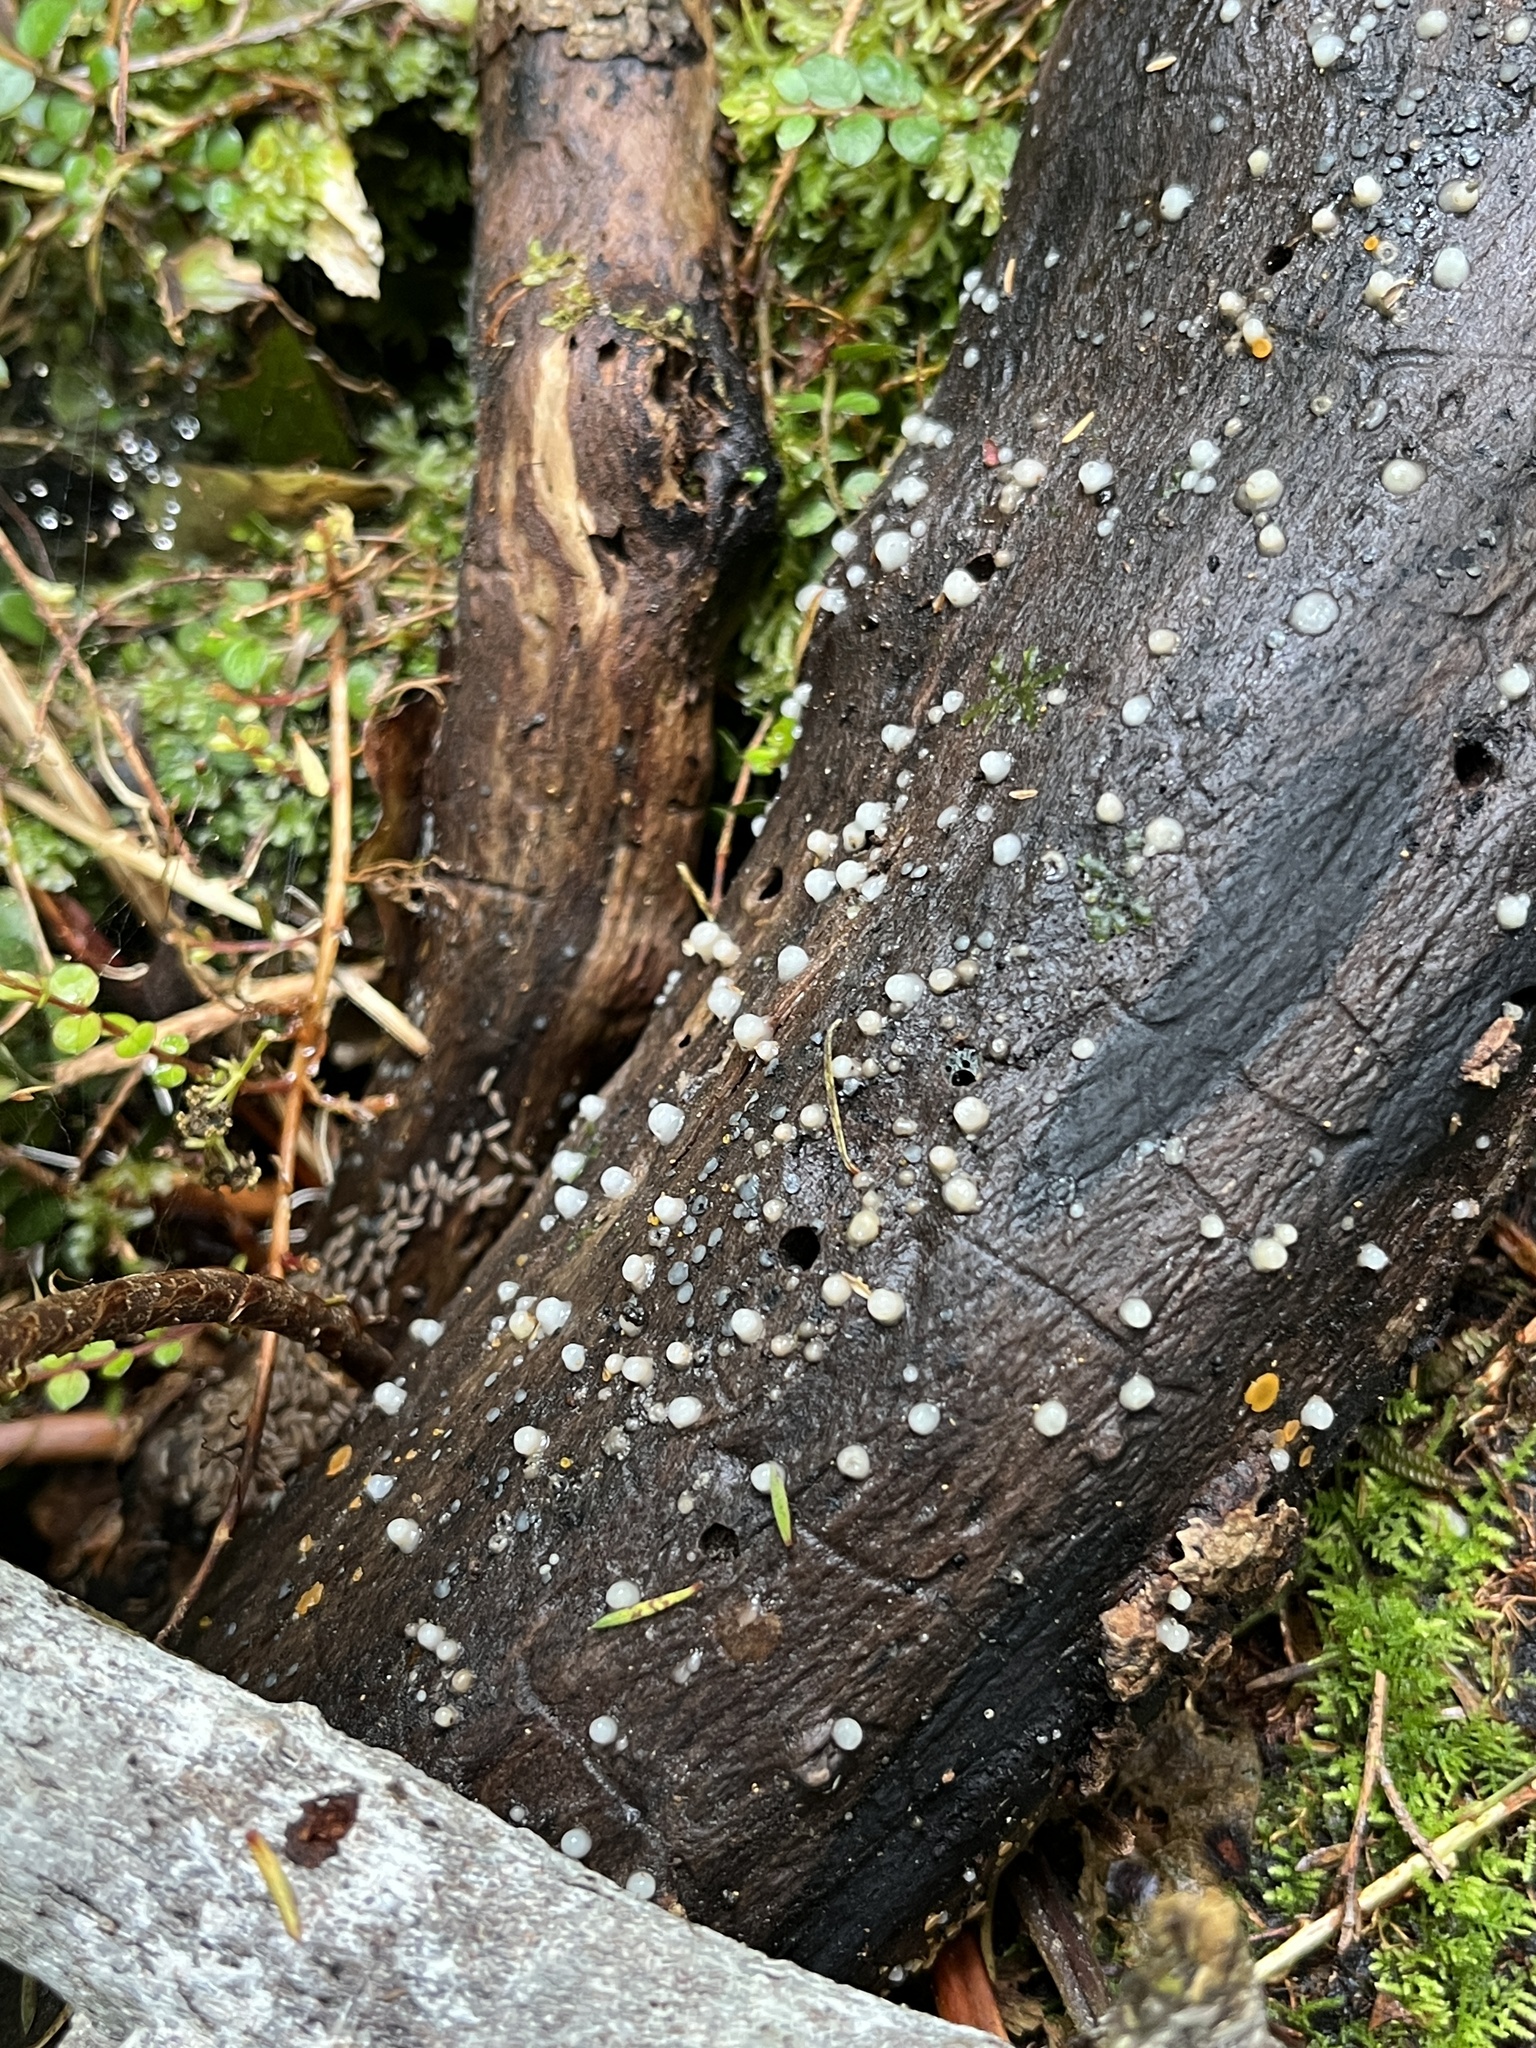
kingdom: Fungi
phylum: Basidiomycota
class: Atractiellomycetes
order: Atractiellales
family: Phleogenaceae
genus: Helicogloea
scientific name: Helicogloea compressa
